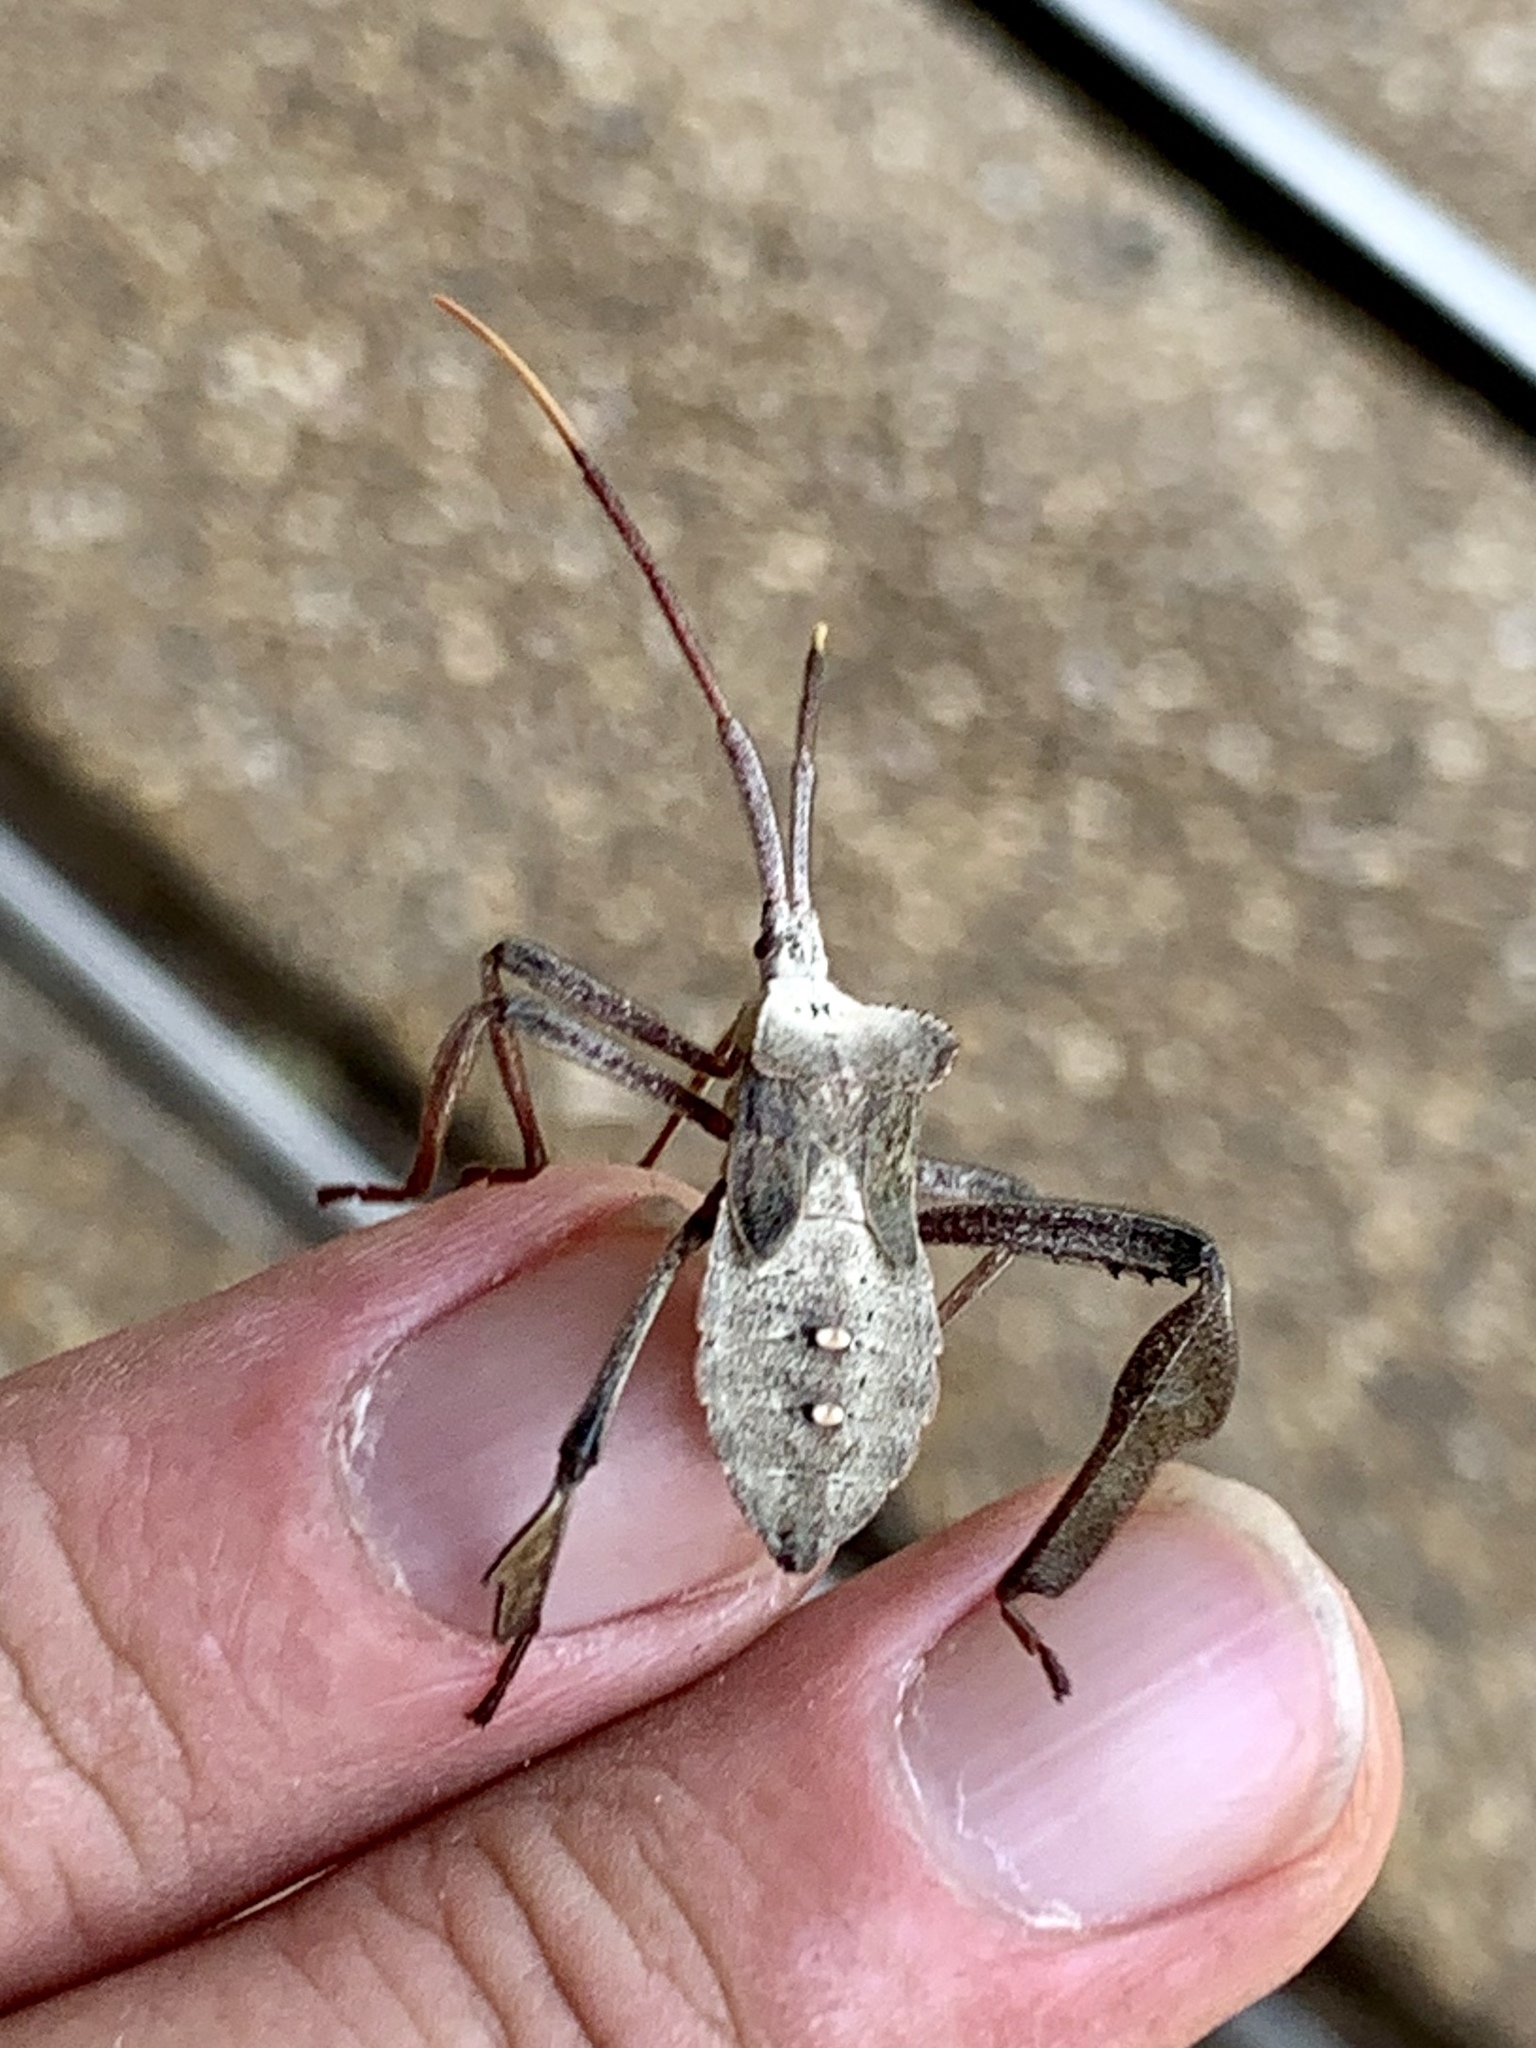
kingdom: Animalia
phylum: Arthropoda
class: Insecta
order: Hemiptera
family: Coreidae
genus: Acanthocephala
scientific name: Acanthocephala declivis
